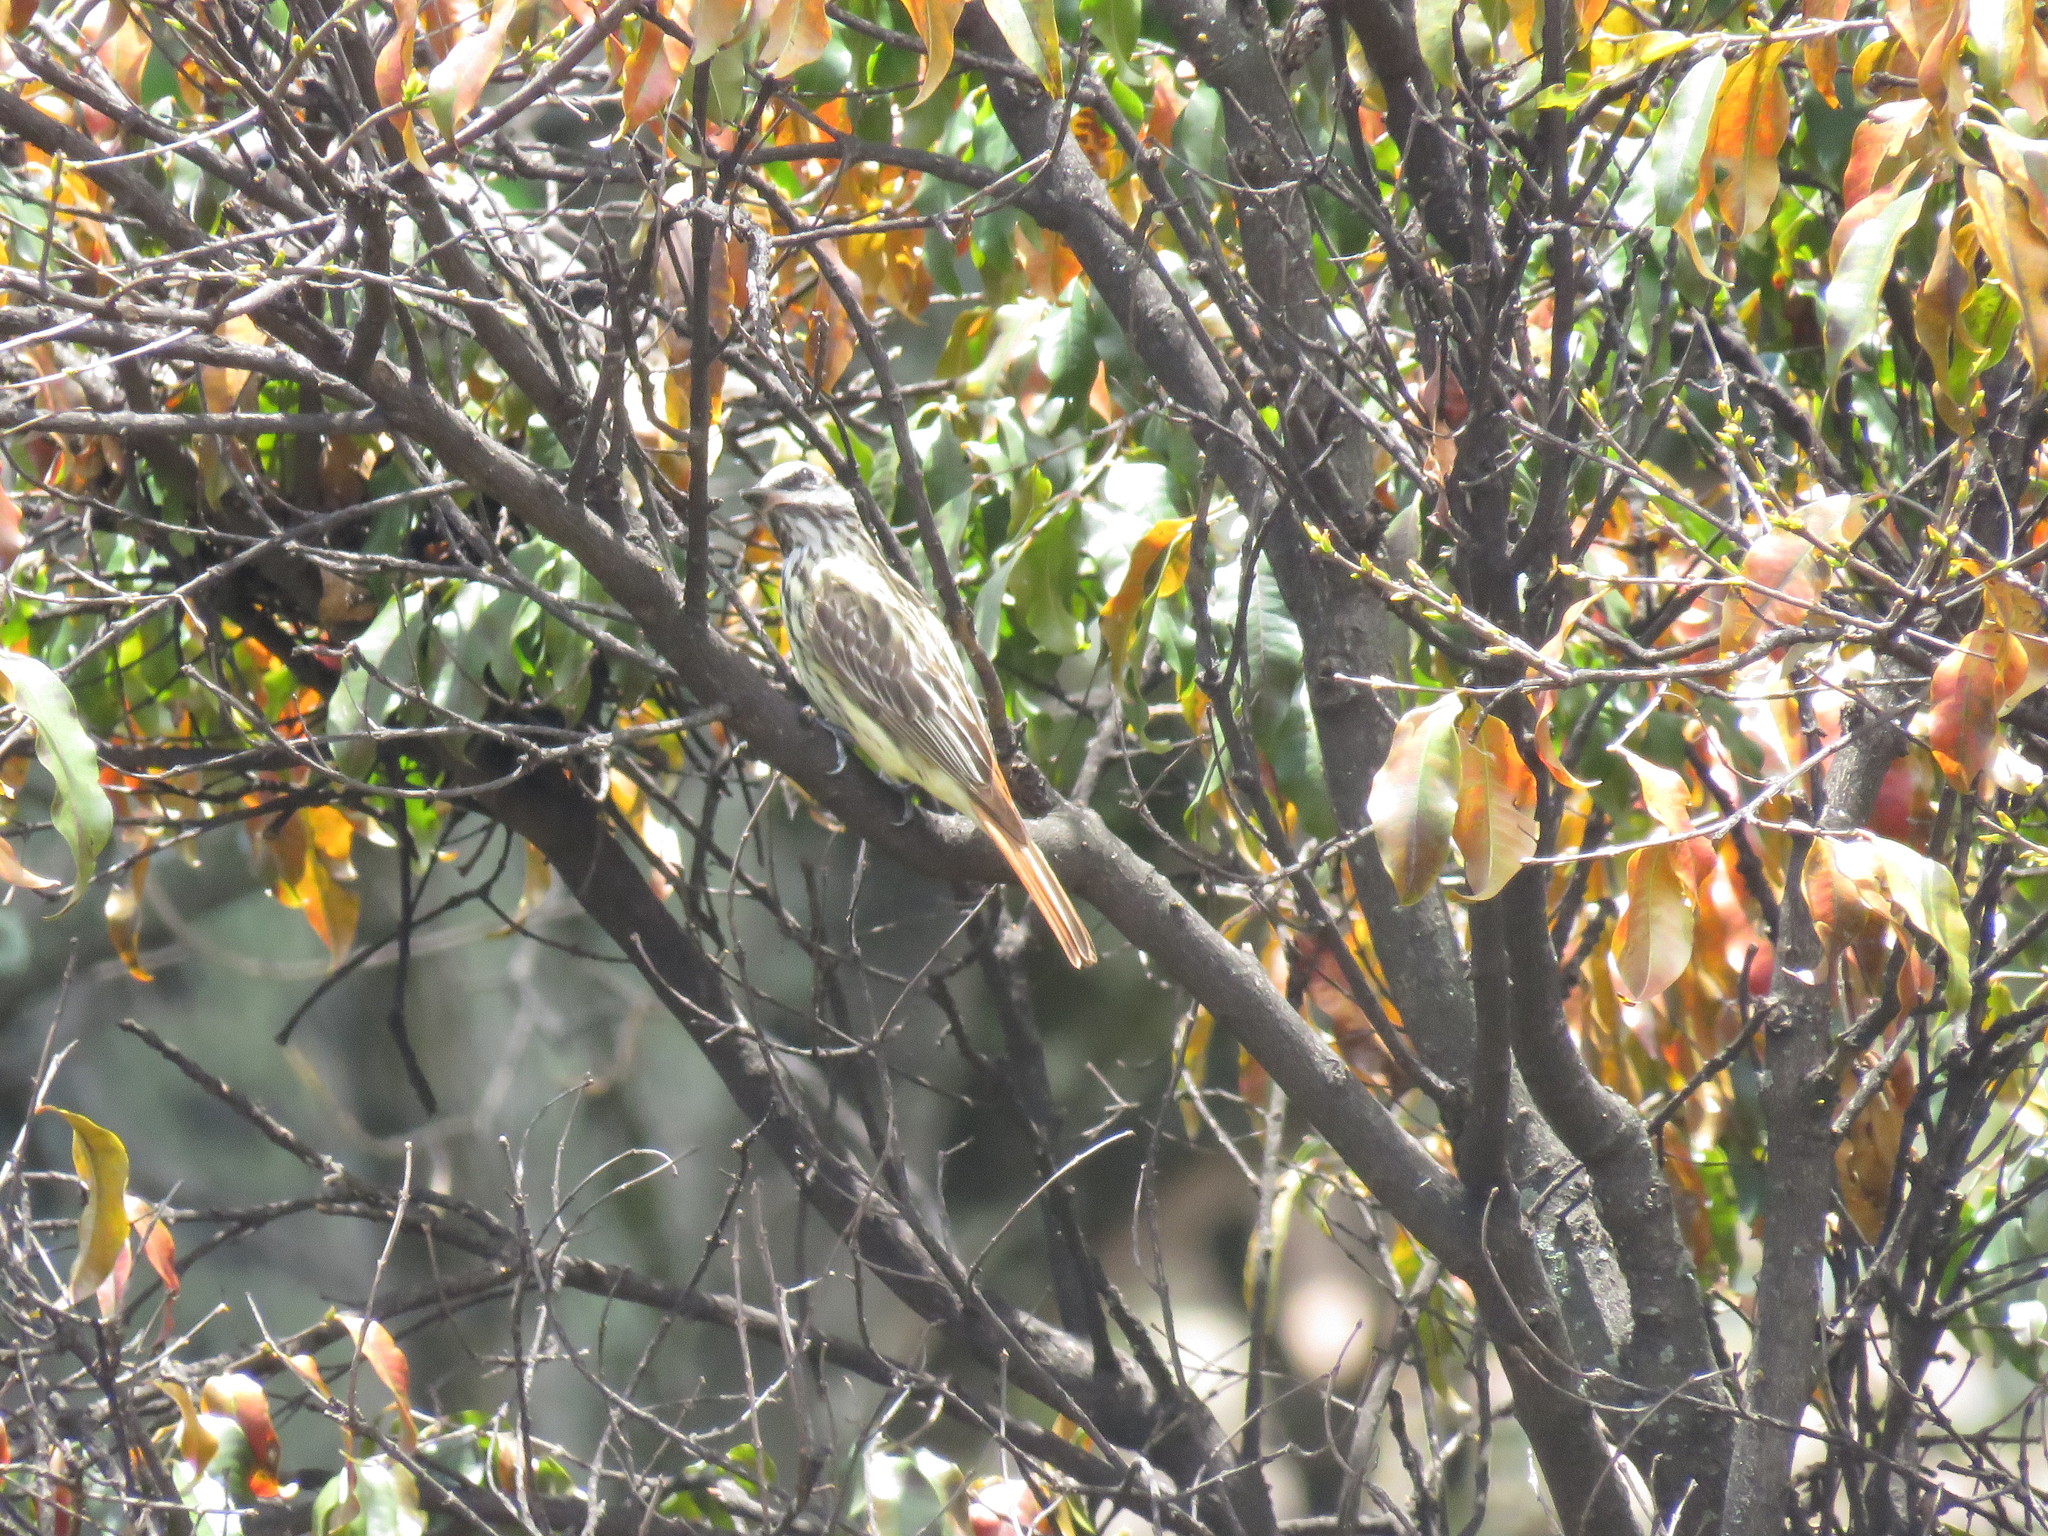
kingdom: Animalia
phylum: Chordata
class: Aves
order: Passeriformes
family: Tyrannidae
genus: Myiodynastes
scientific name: Myiodynastes luteiventris
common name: Sulphur-bellied flycatcher
